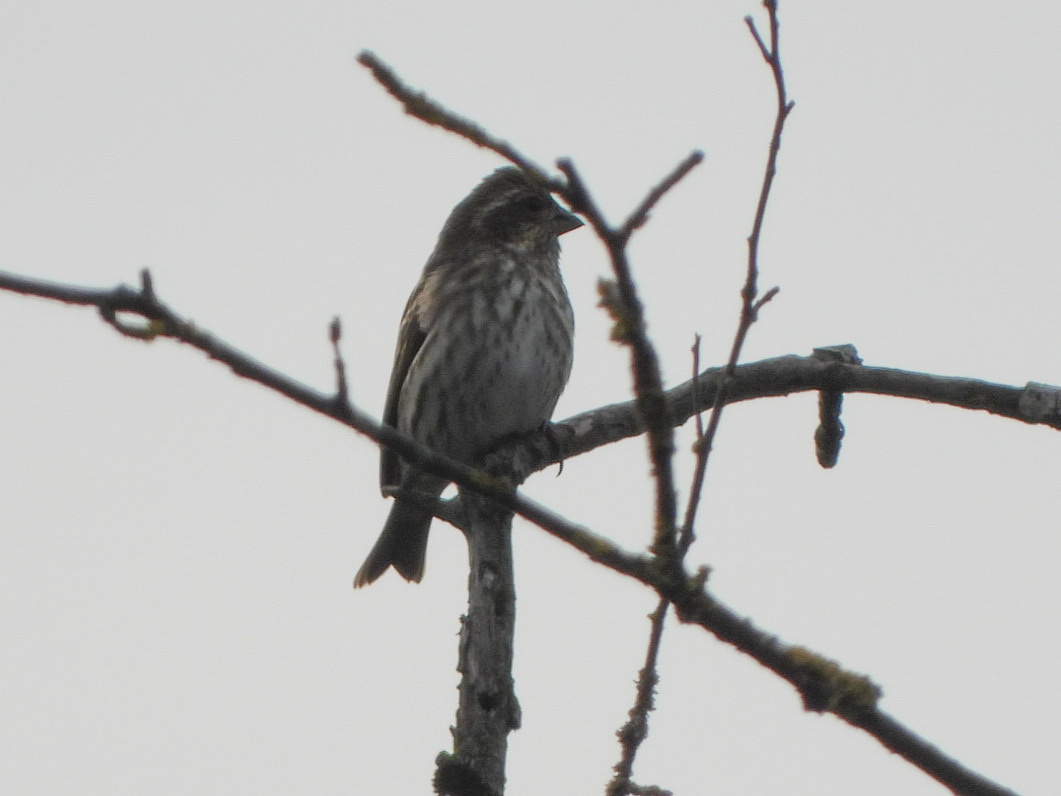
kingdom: Animalia
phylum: Chordata
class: Aves
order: Passeriformes
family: Fringillidae
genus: Haemorhous
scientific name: Haemorhous purpureus
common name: Purple finch
